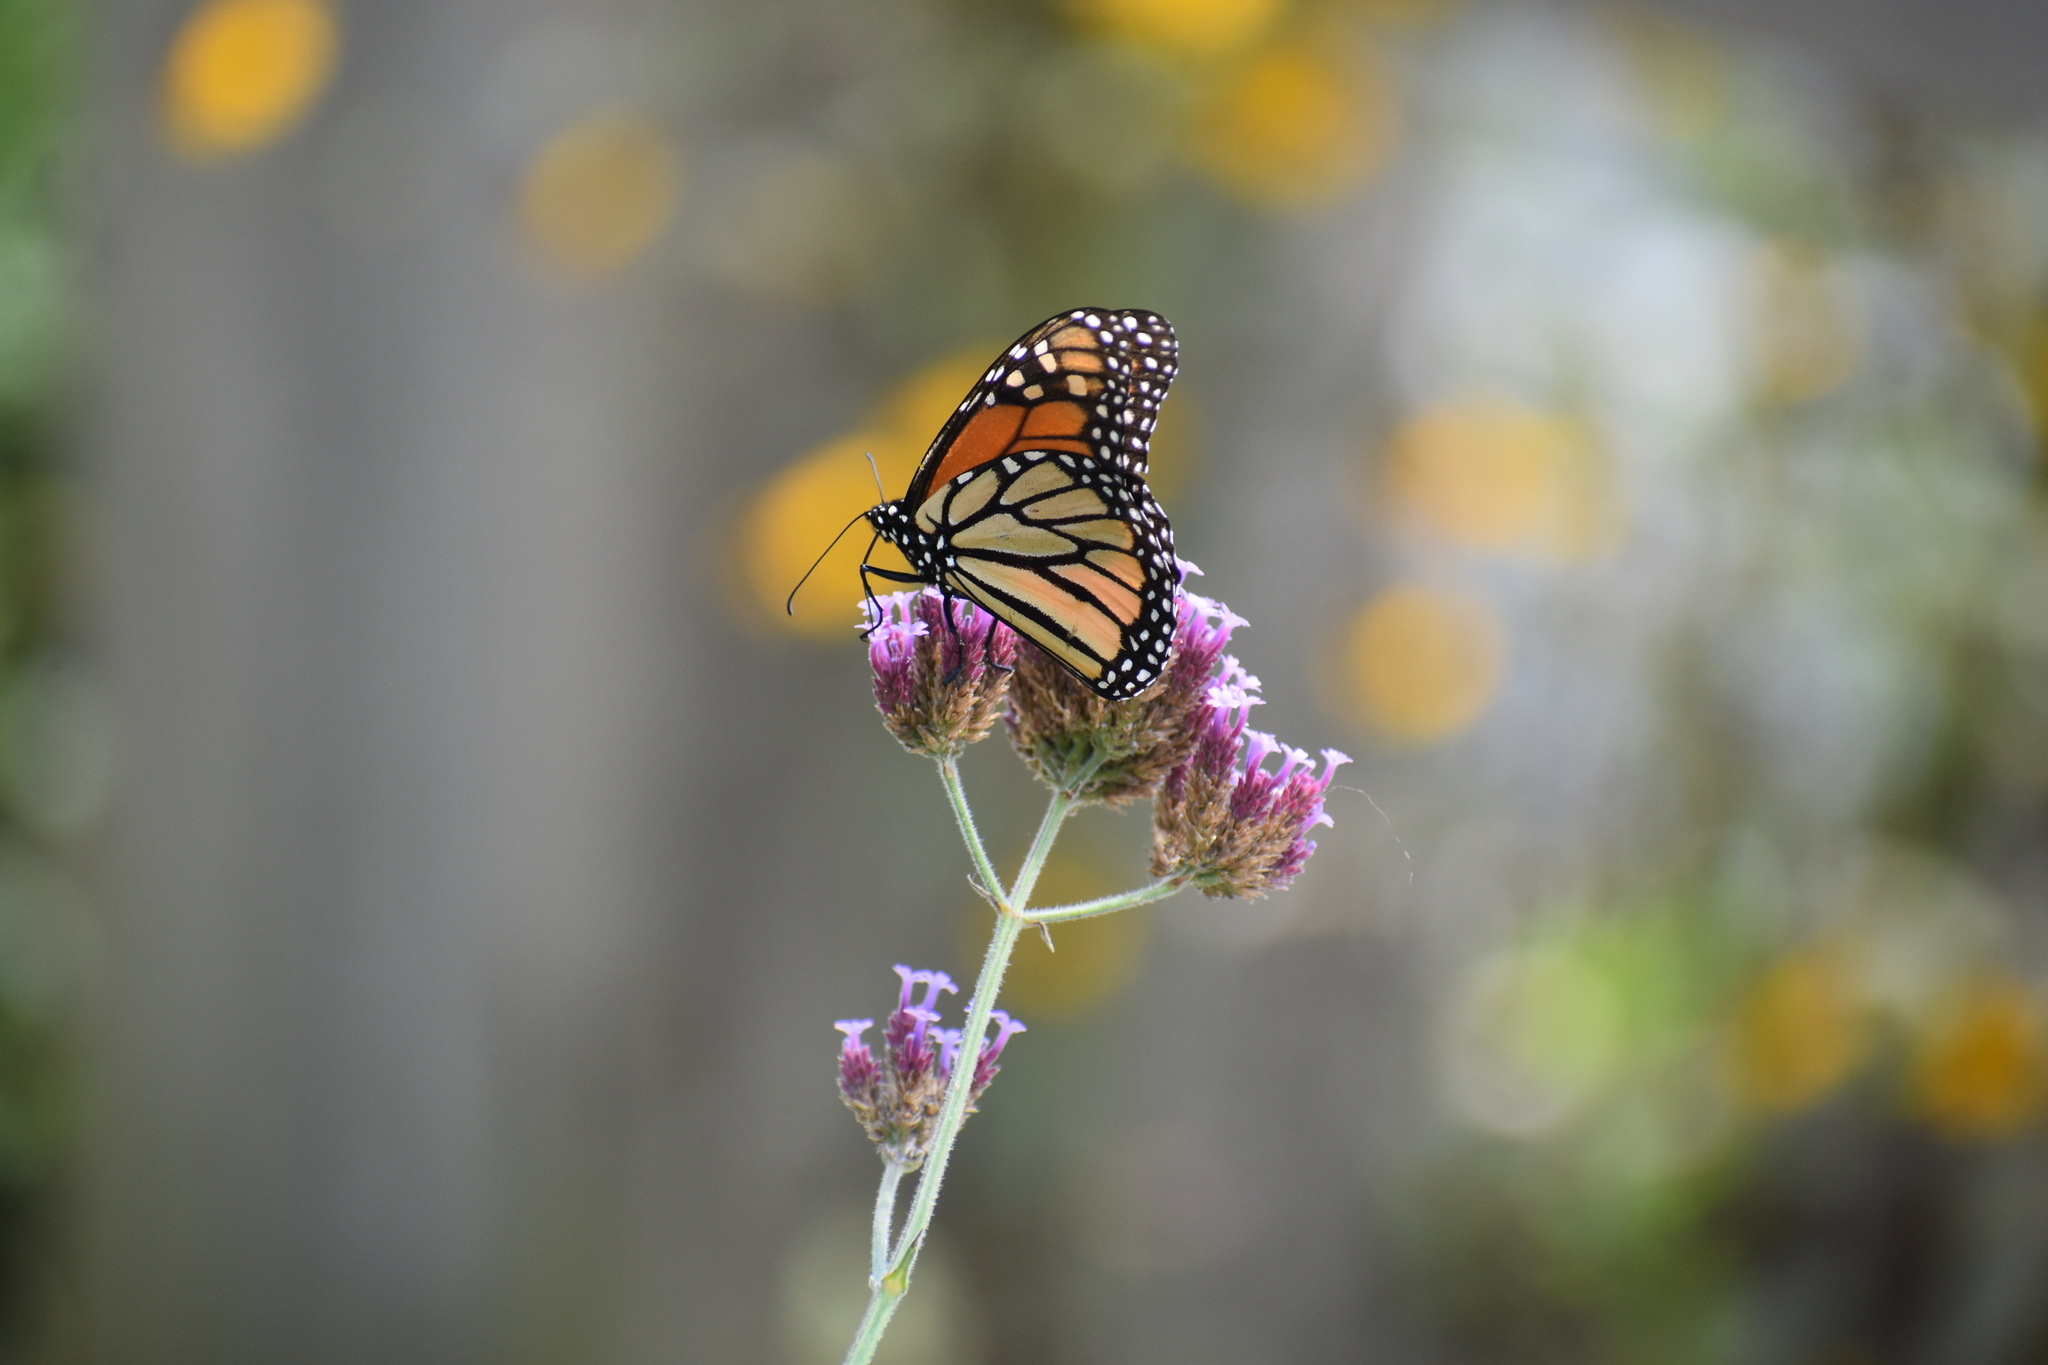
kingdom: Animalia
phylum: Arthropoda
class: Insecta
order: Lepidoptera
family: Nymphalidae
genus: Danaus
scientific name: Danaus plexippus
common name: Monarch
